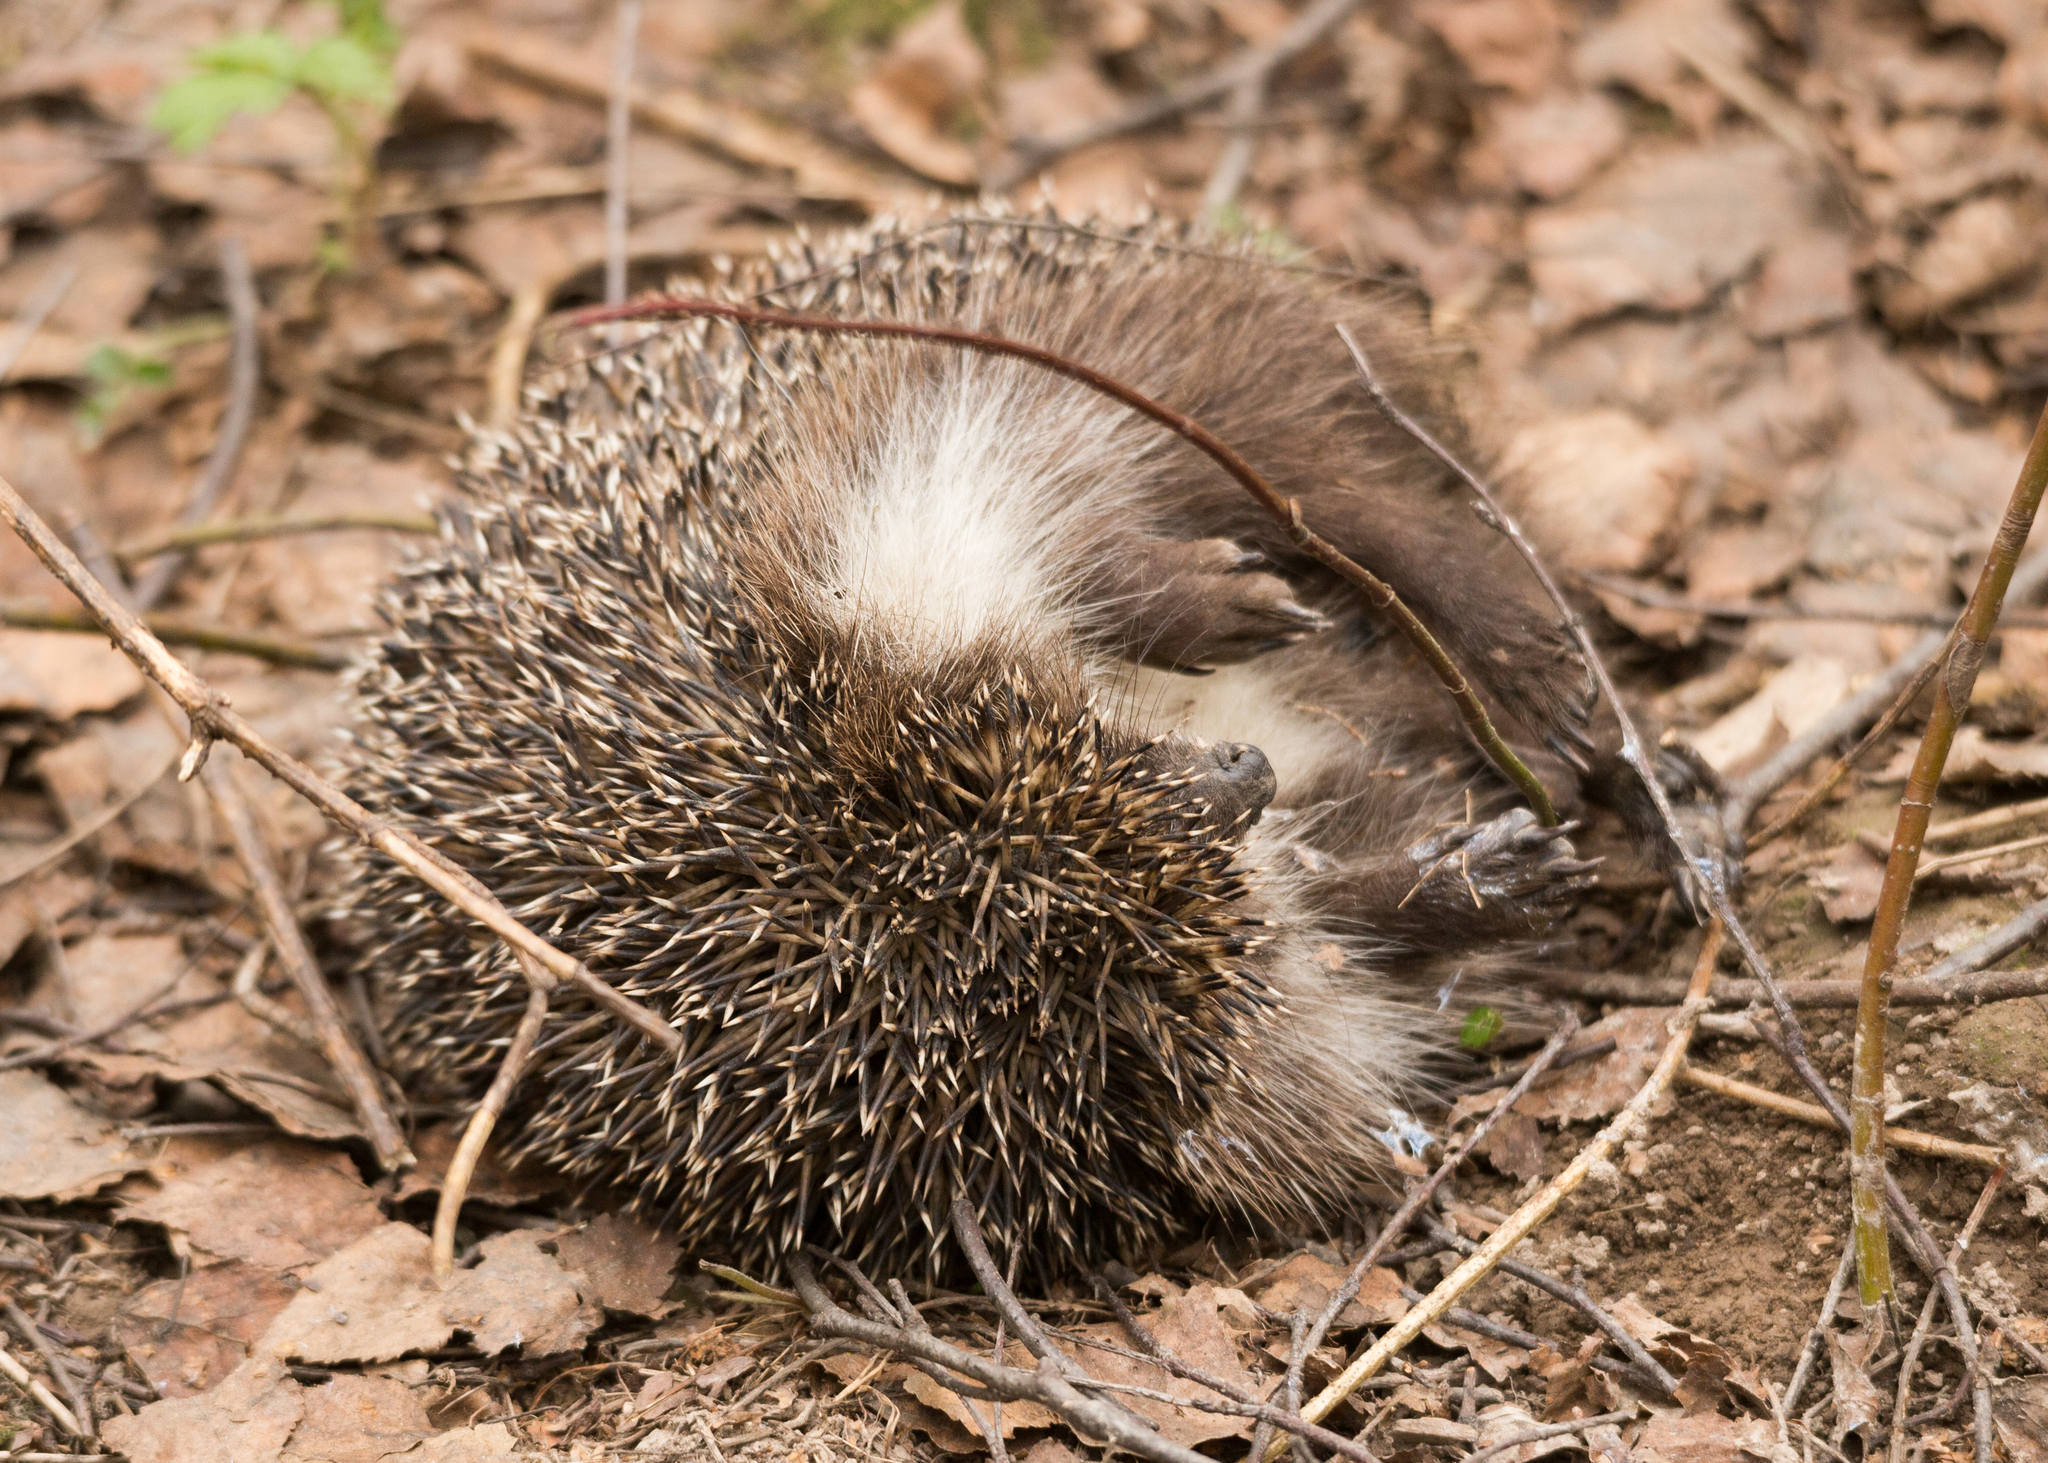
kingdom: Animalia
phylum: Chordata
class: Mammalia
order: Erinaceomorpha
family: Erinaceidae
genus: Erinaceus
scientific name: Erinaceus roumanicus
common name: Northern white-breasted hedgehog
